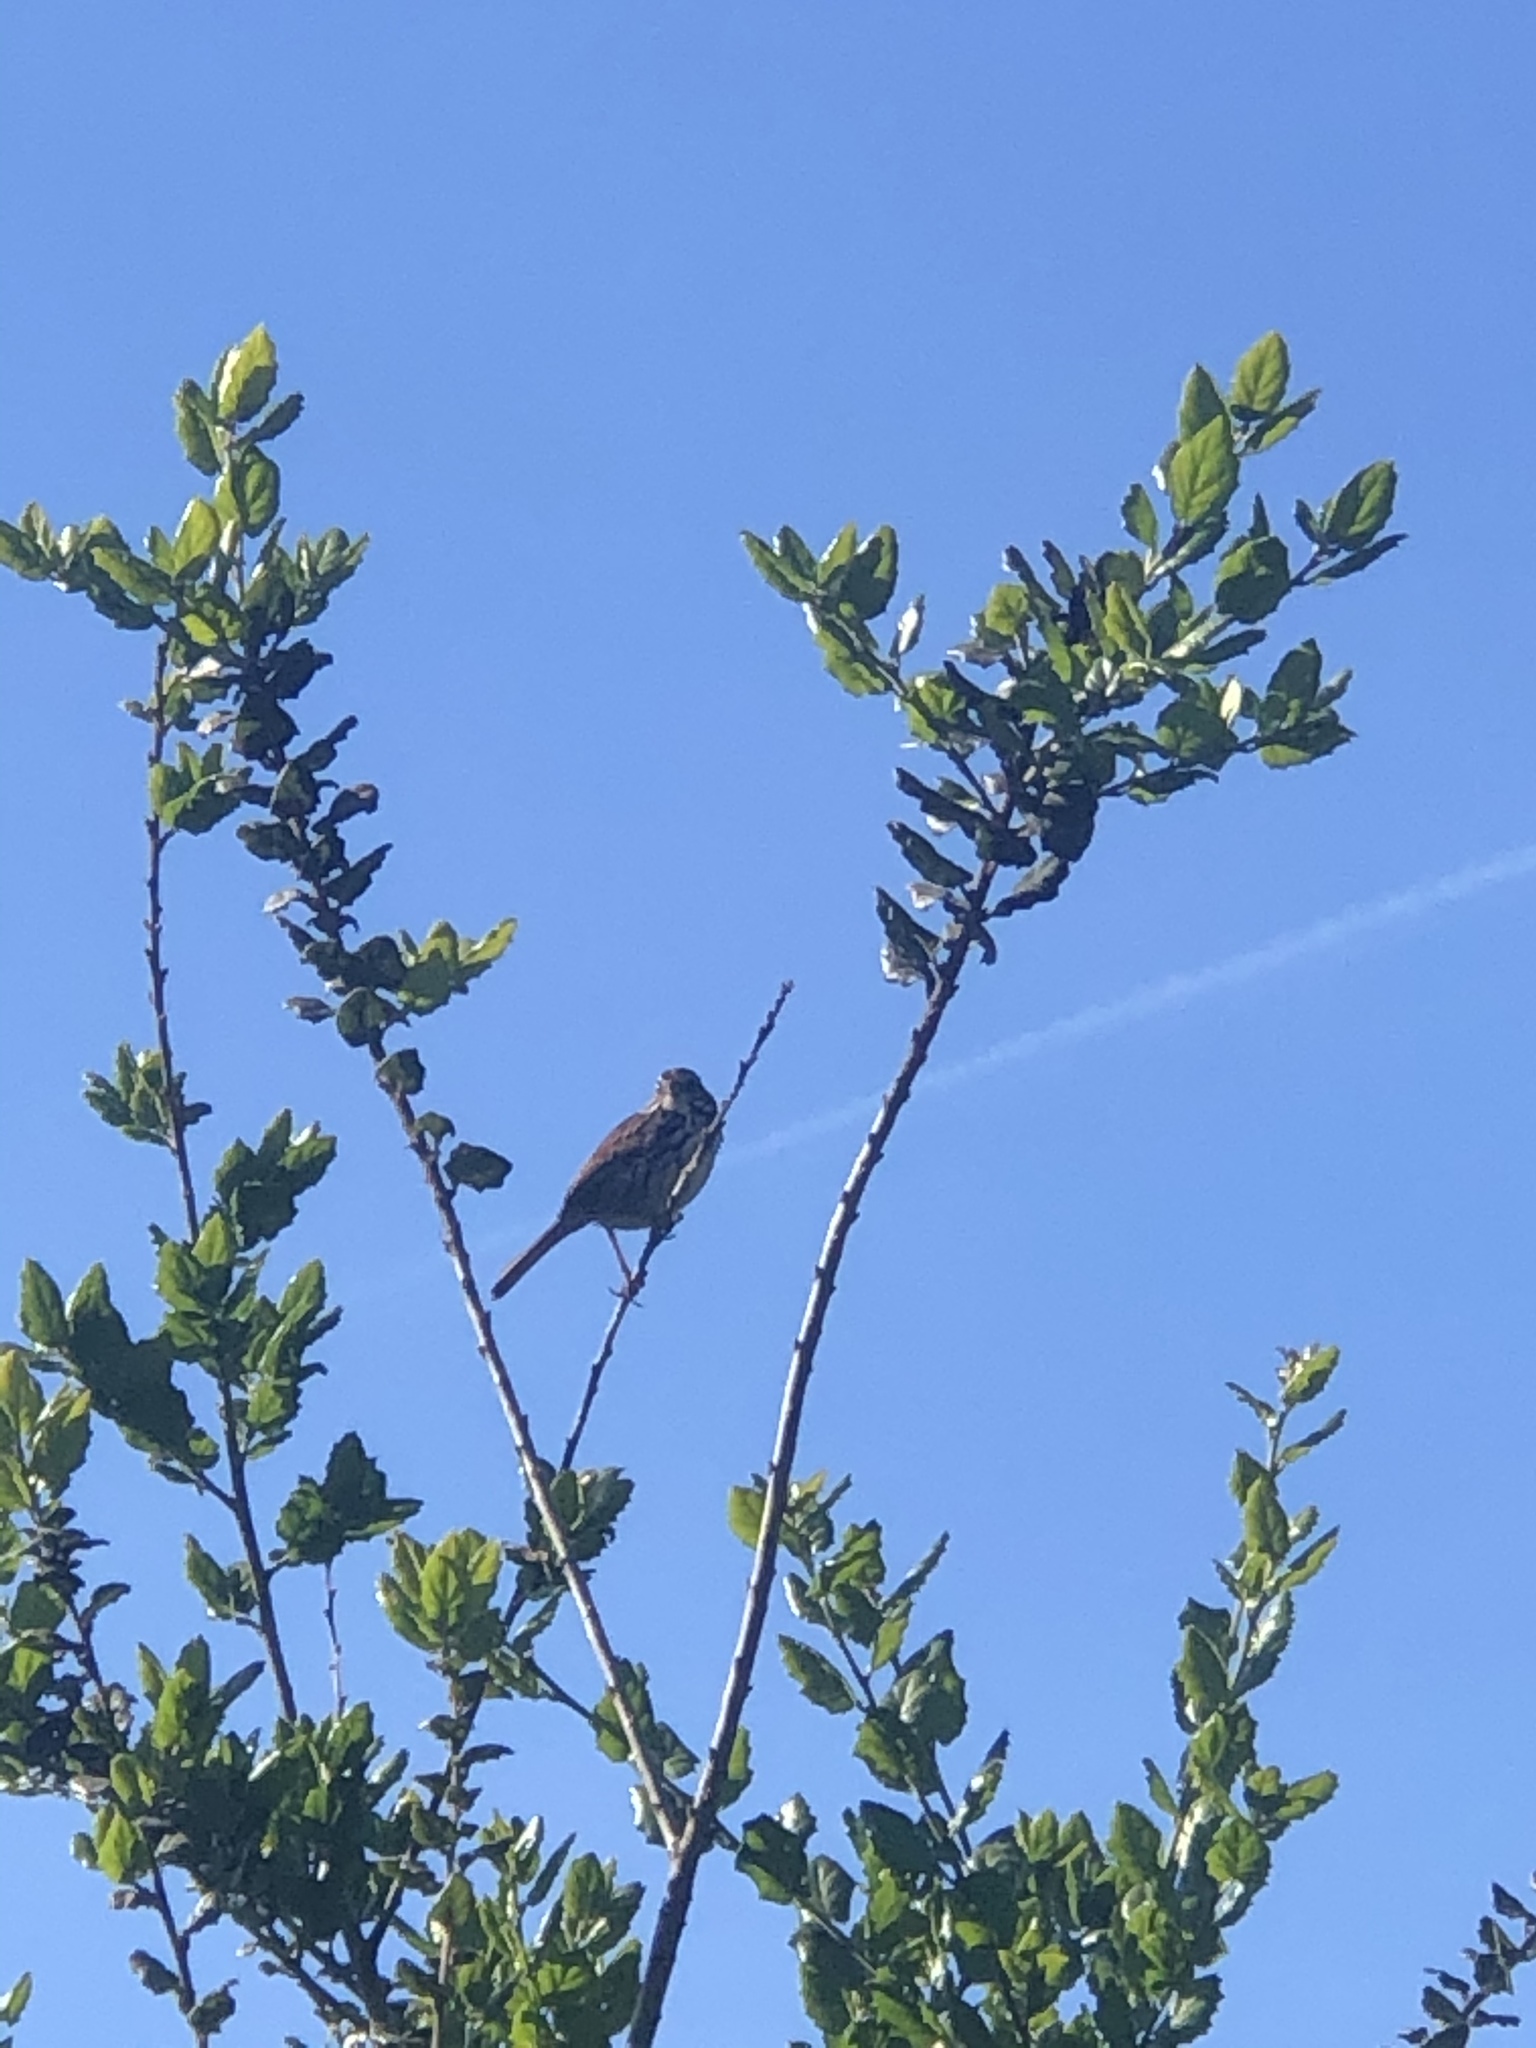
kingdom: Animalia
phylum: Chordata
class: Aves
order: Passeriformes
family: Passerellidae
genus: Melospiza
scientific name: Melospiza melodia
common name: Song sparrow
